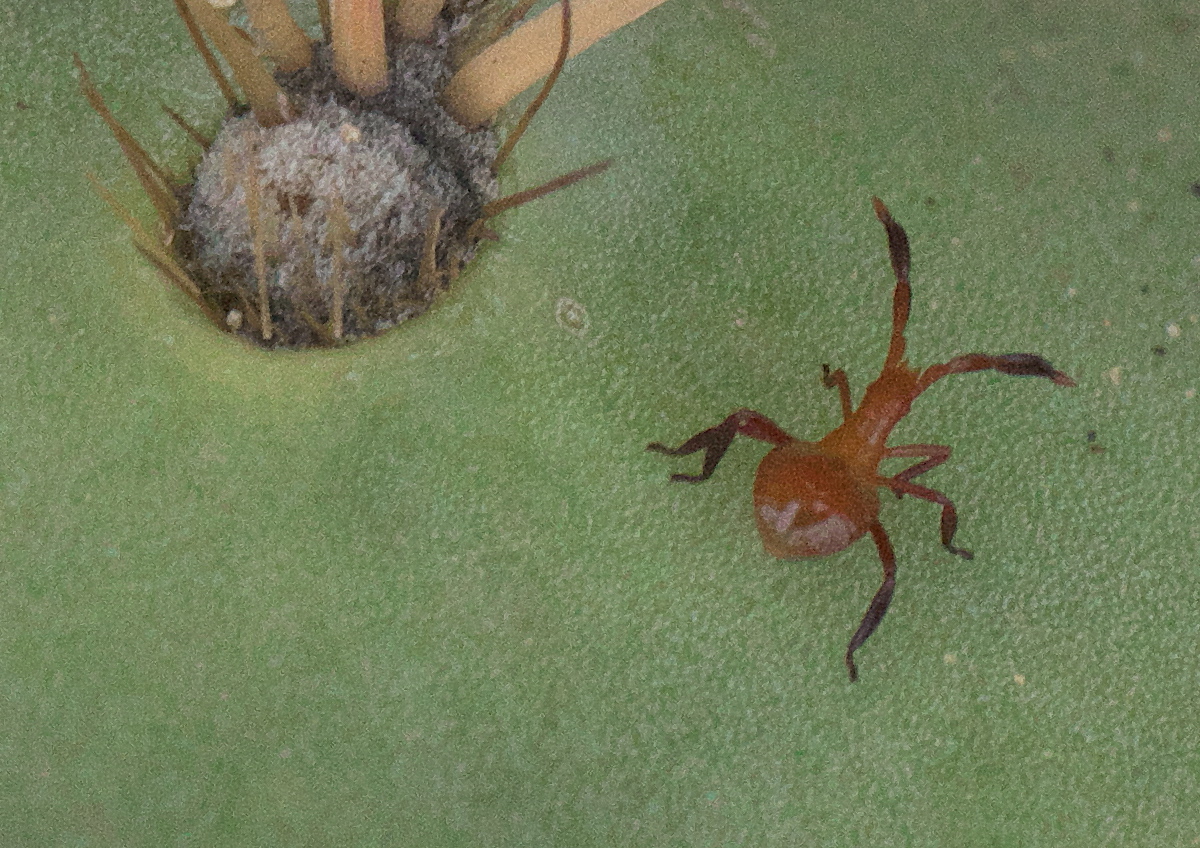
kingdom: Animalia
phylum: Arthropoda
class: Insecta
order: Hemiptera
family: Coreidae
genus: Chelinidea
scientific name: Chelinidea vittiger
